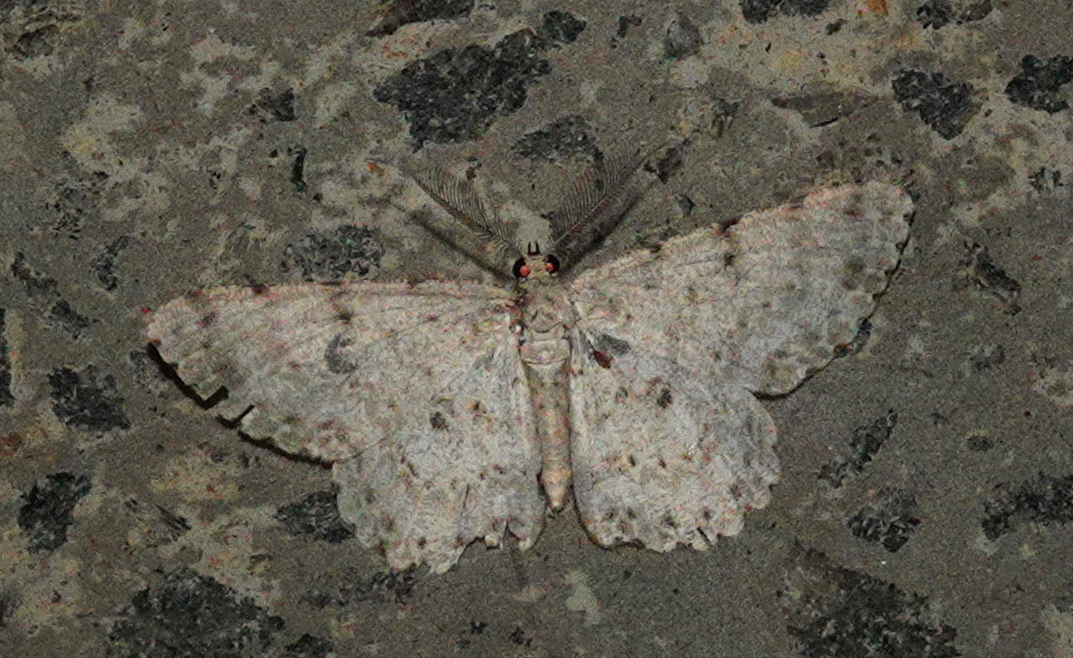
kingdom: Animalia
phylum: Arthropoda
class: Insecta
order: Lepidoptera
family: Geometridae
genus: Catoria
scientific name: Catoria sublavaria
